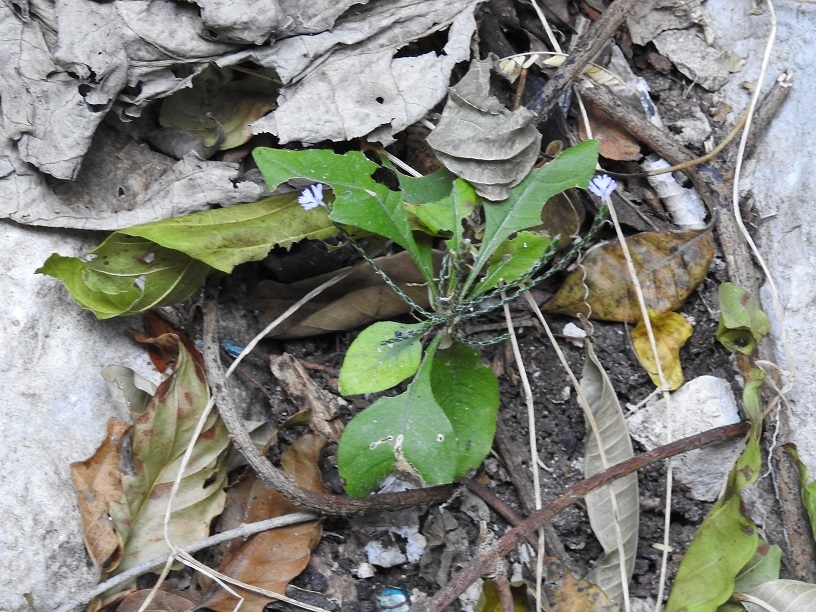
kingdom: Plantae
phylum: Tracheophyta
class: Magnoliopsida
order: Lamiales
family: Acanthaceae
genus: Elytraria
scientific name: Elytraria imbricata
